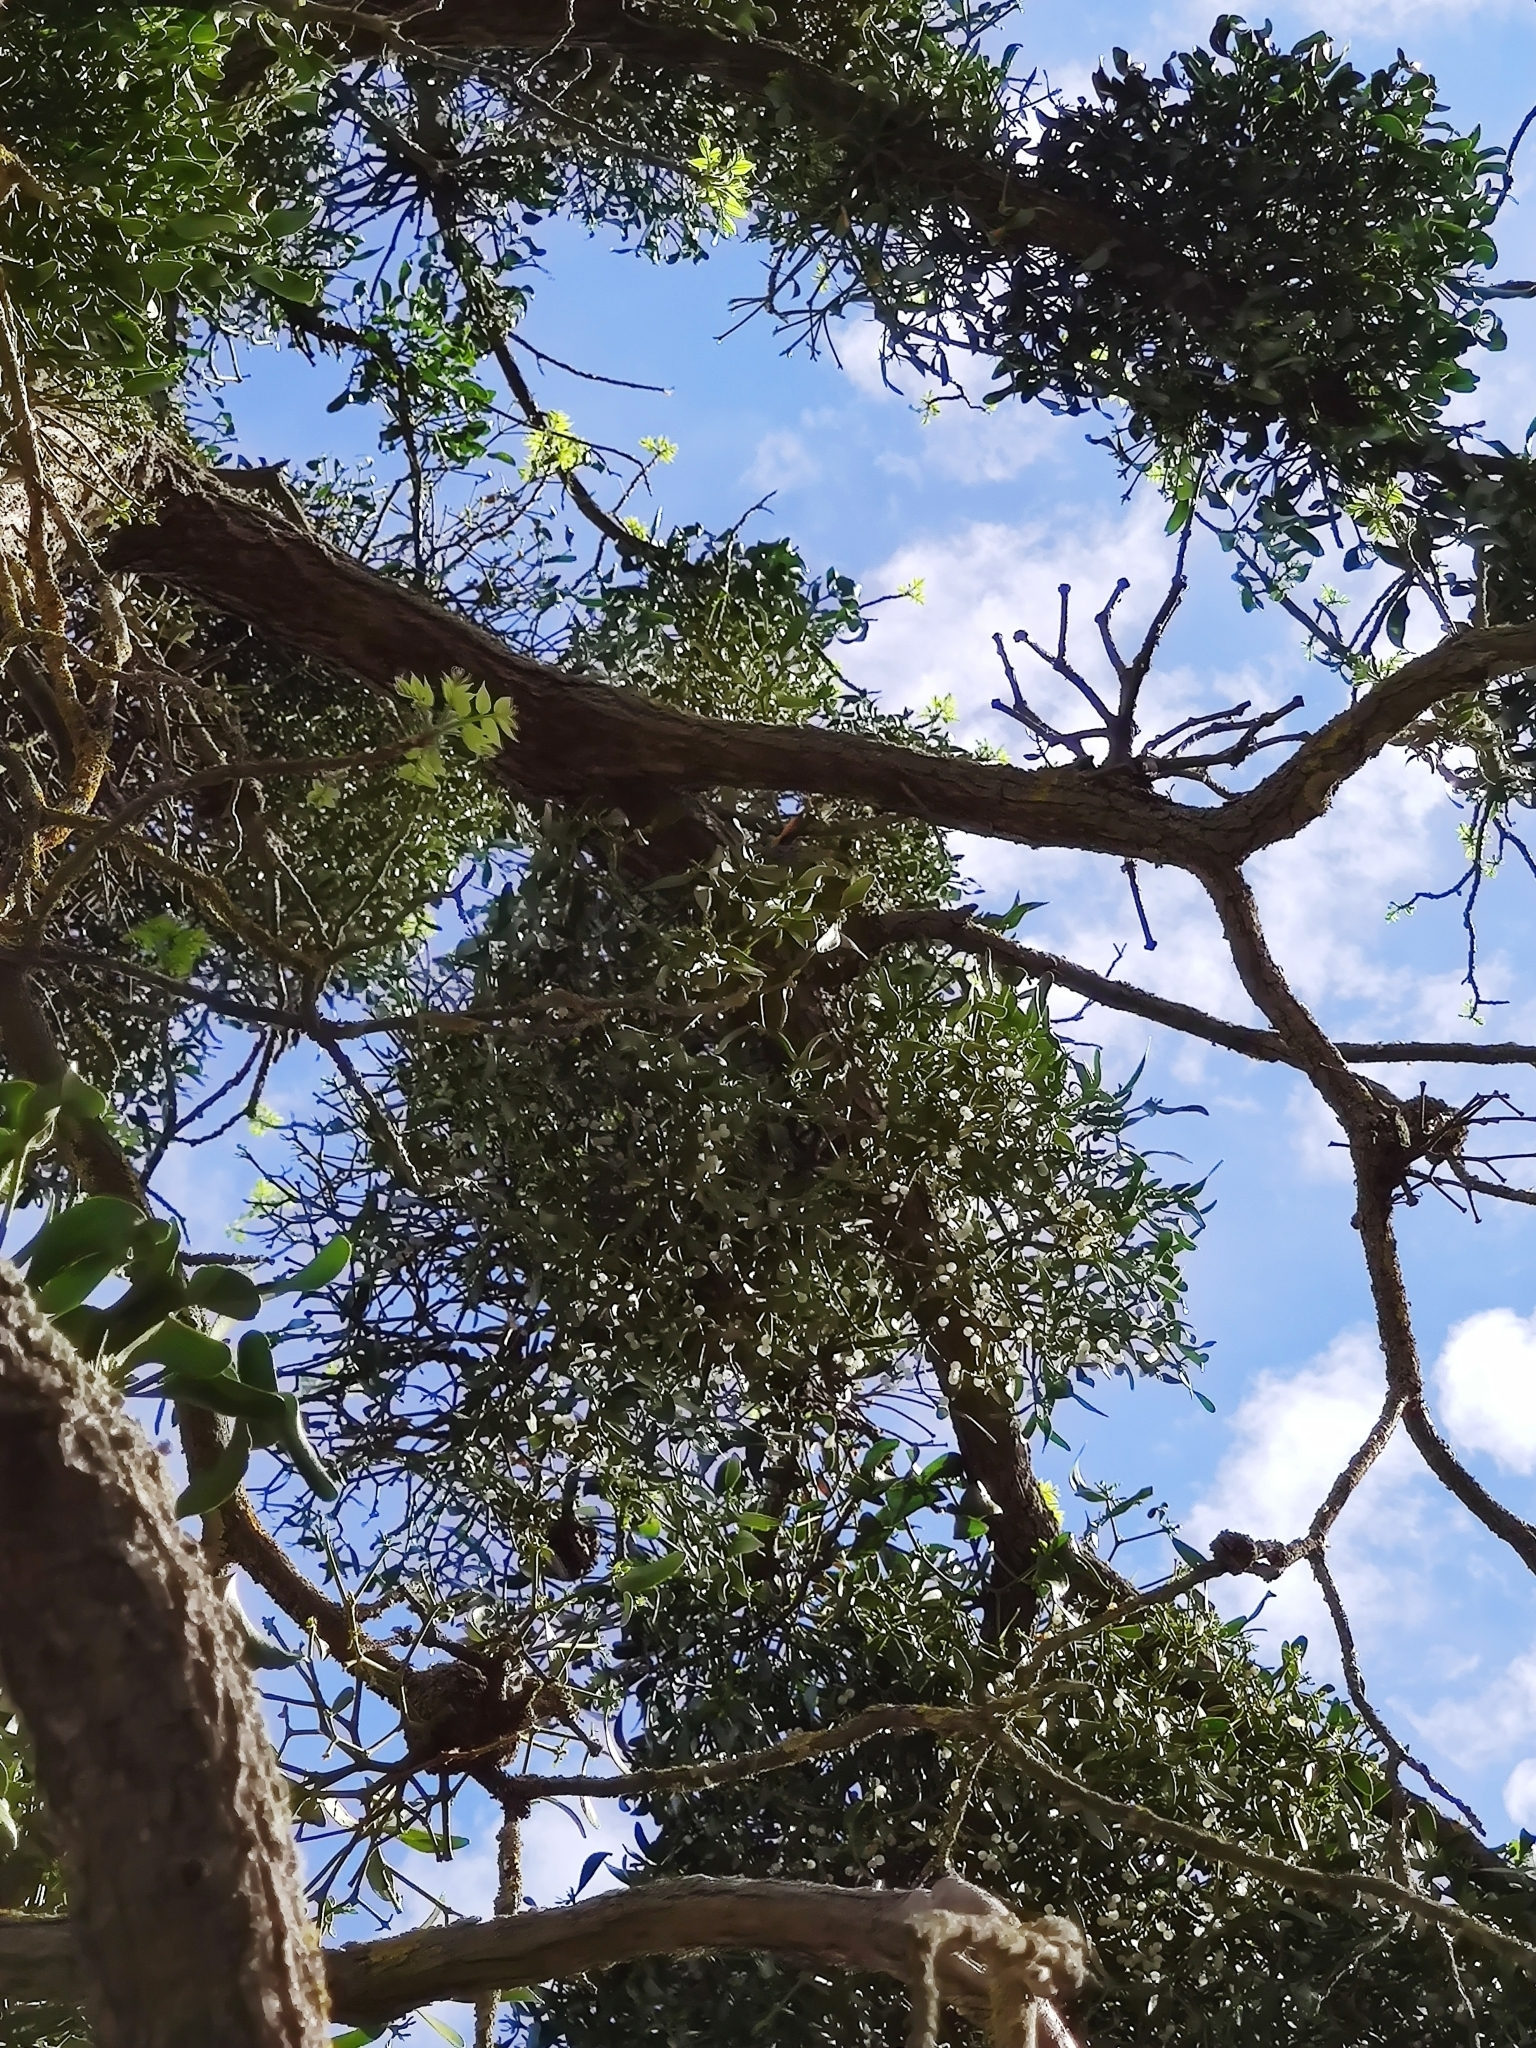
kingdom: Plantae
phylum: Tracheophyta
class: Magnoliopsida
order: Santalales
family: Viscaceae
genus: Viscum
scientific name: Viscum album
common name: Mistletoe
